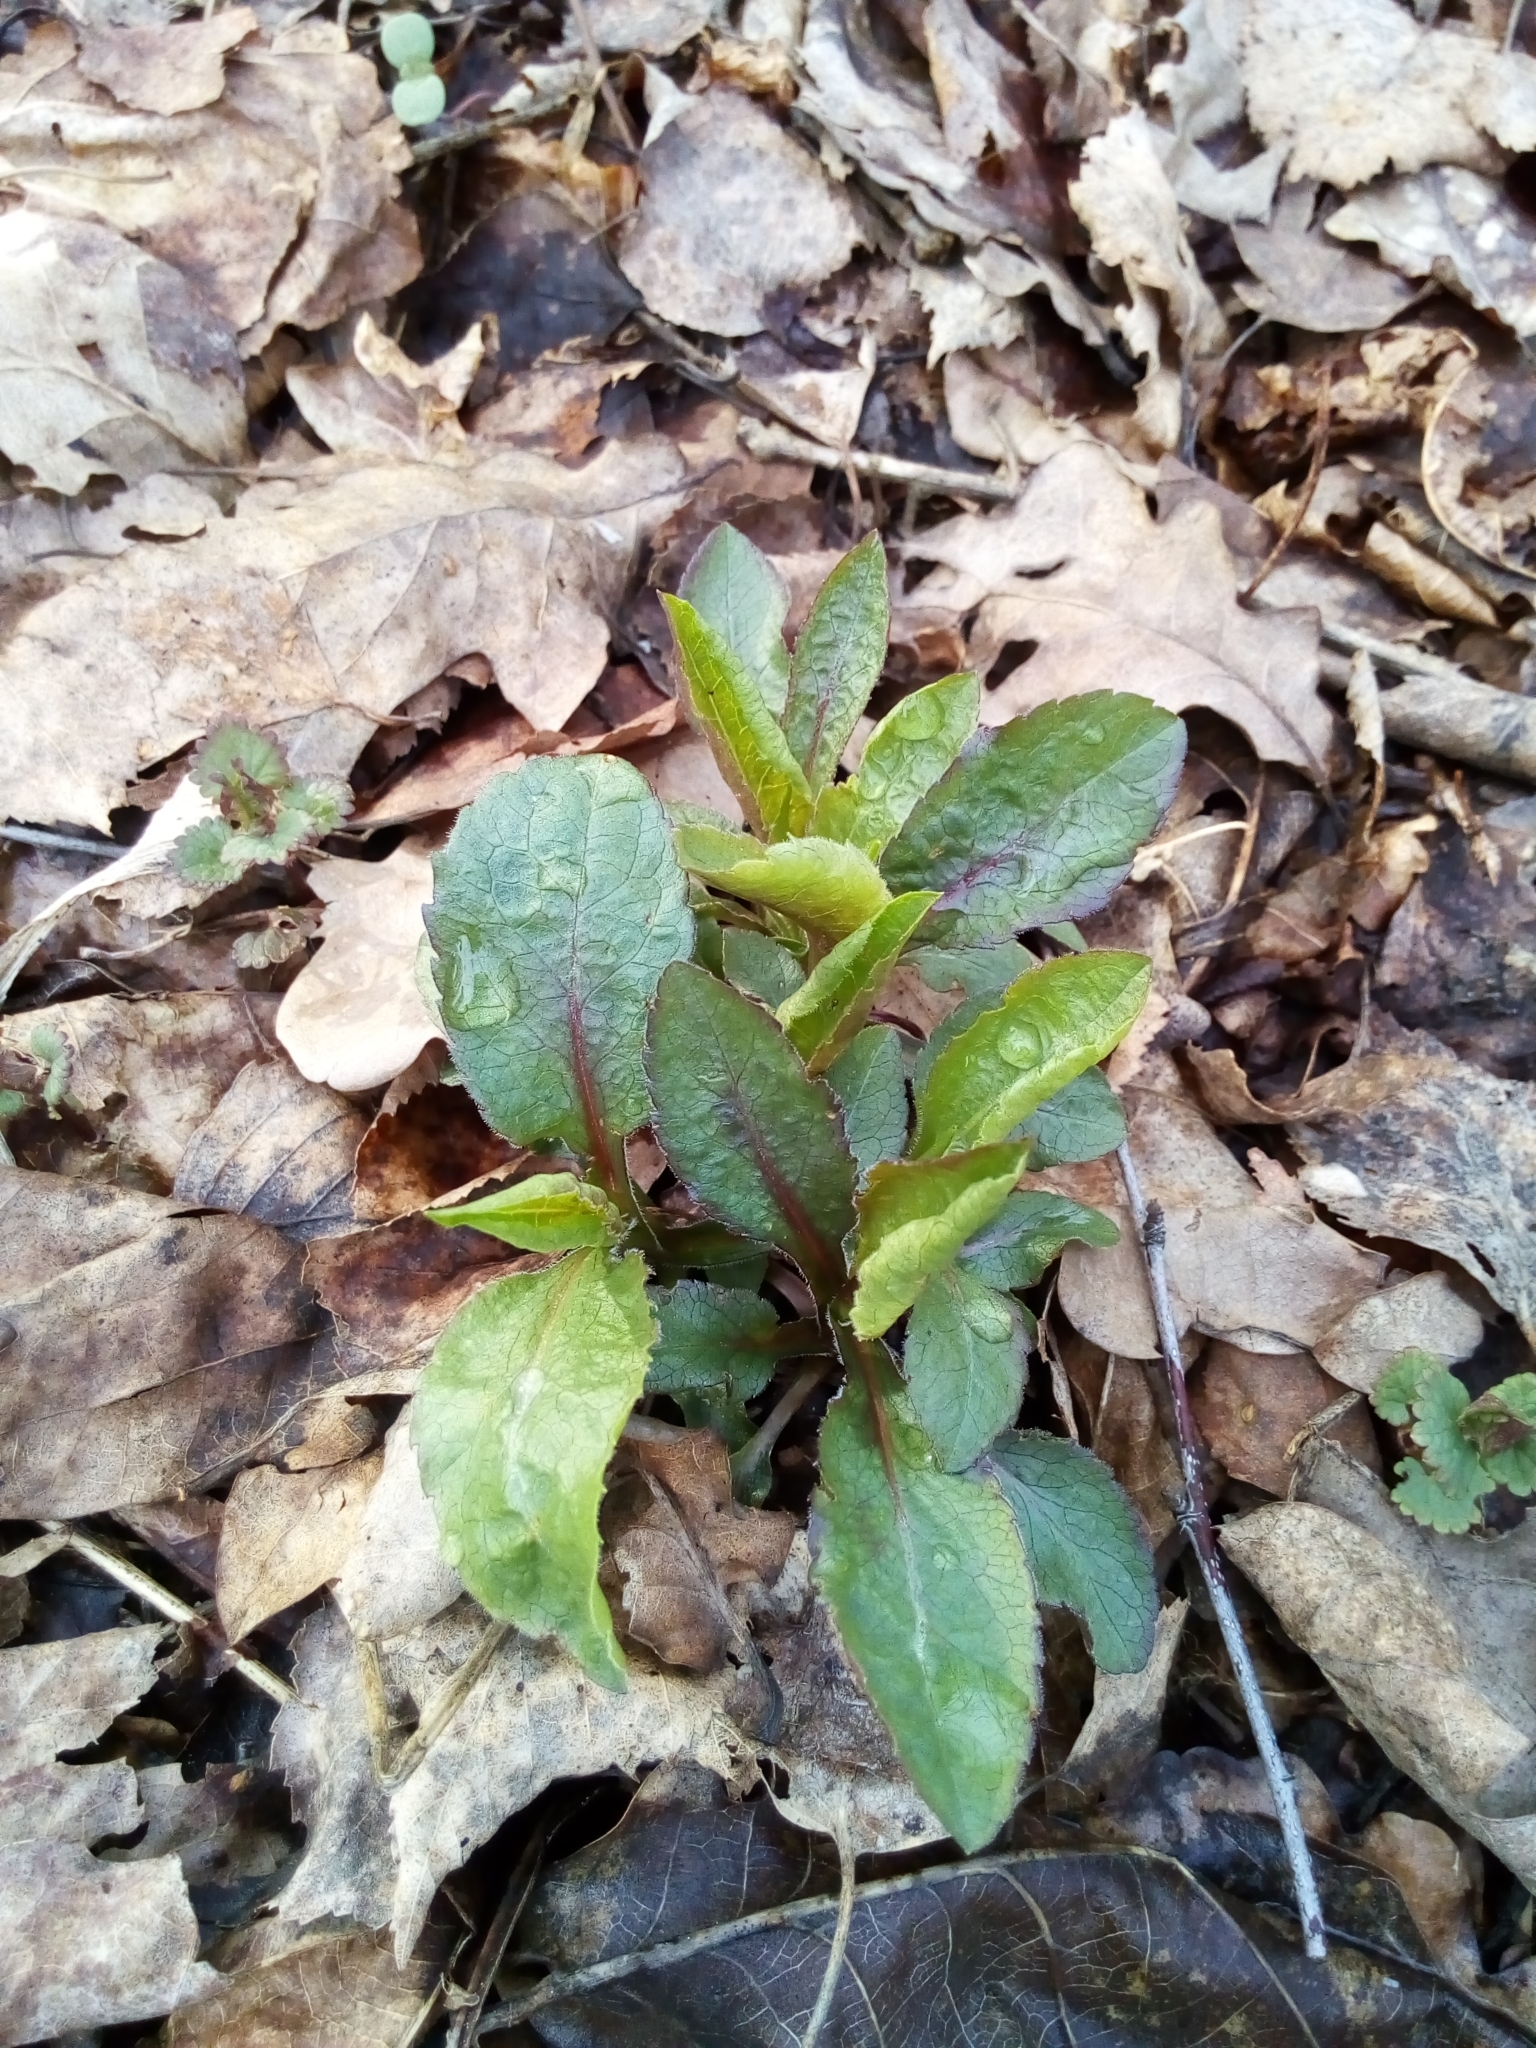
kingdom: Plantae
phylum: Tracheophyta
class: Magnoliopsida
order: Asterales
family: Asteraceae
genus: Solidago
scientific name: Solidago virgaurea
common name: Goldenrod
